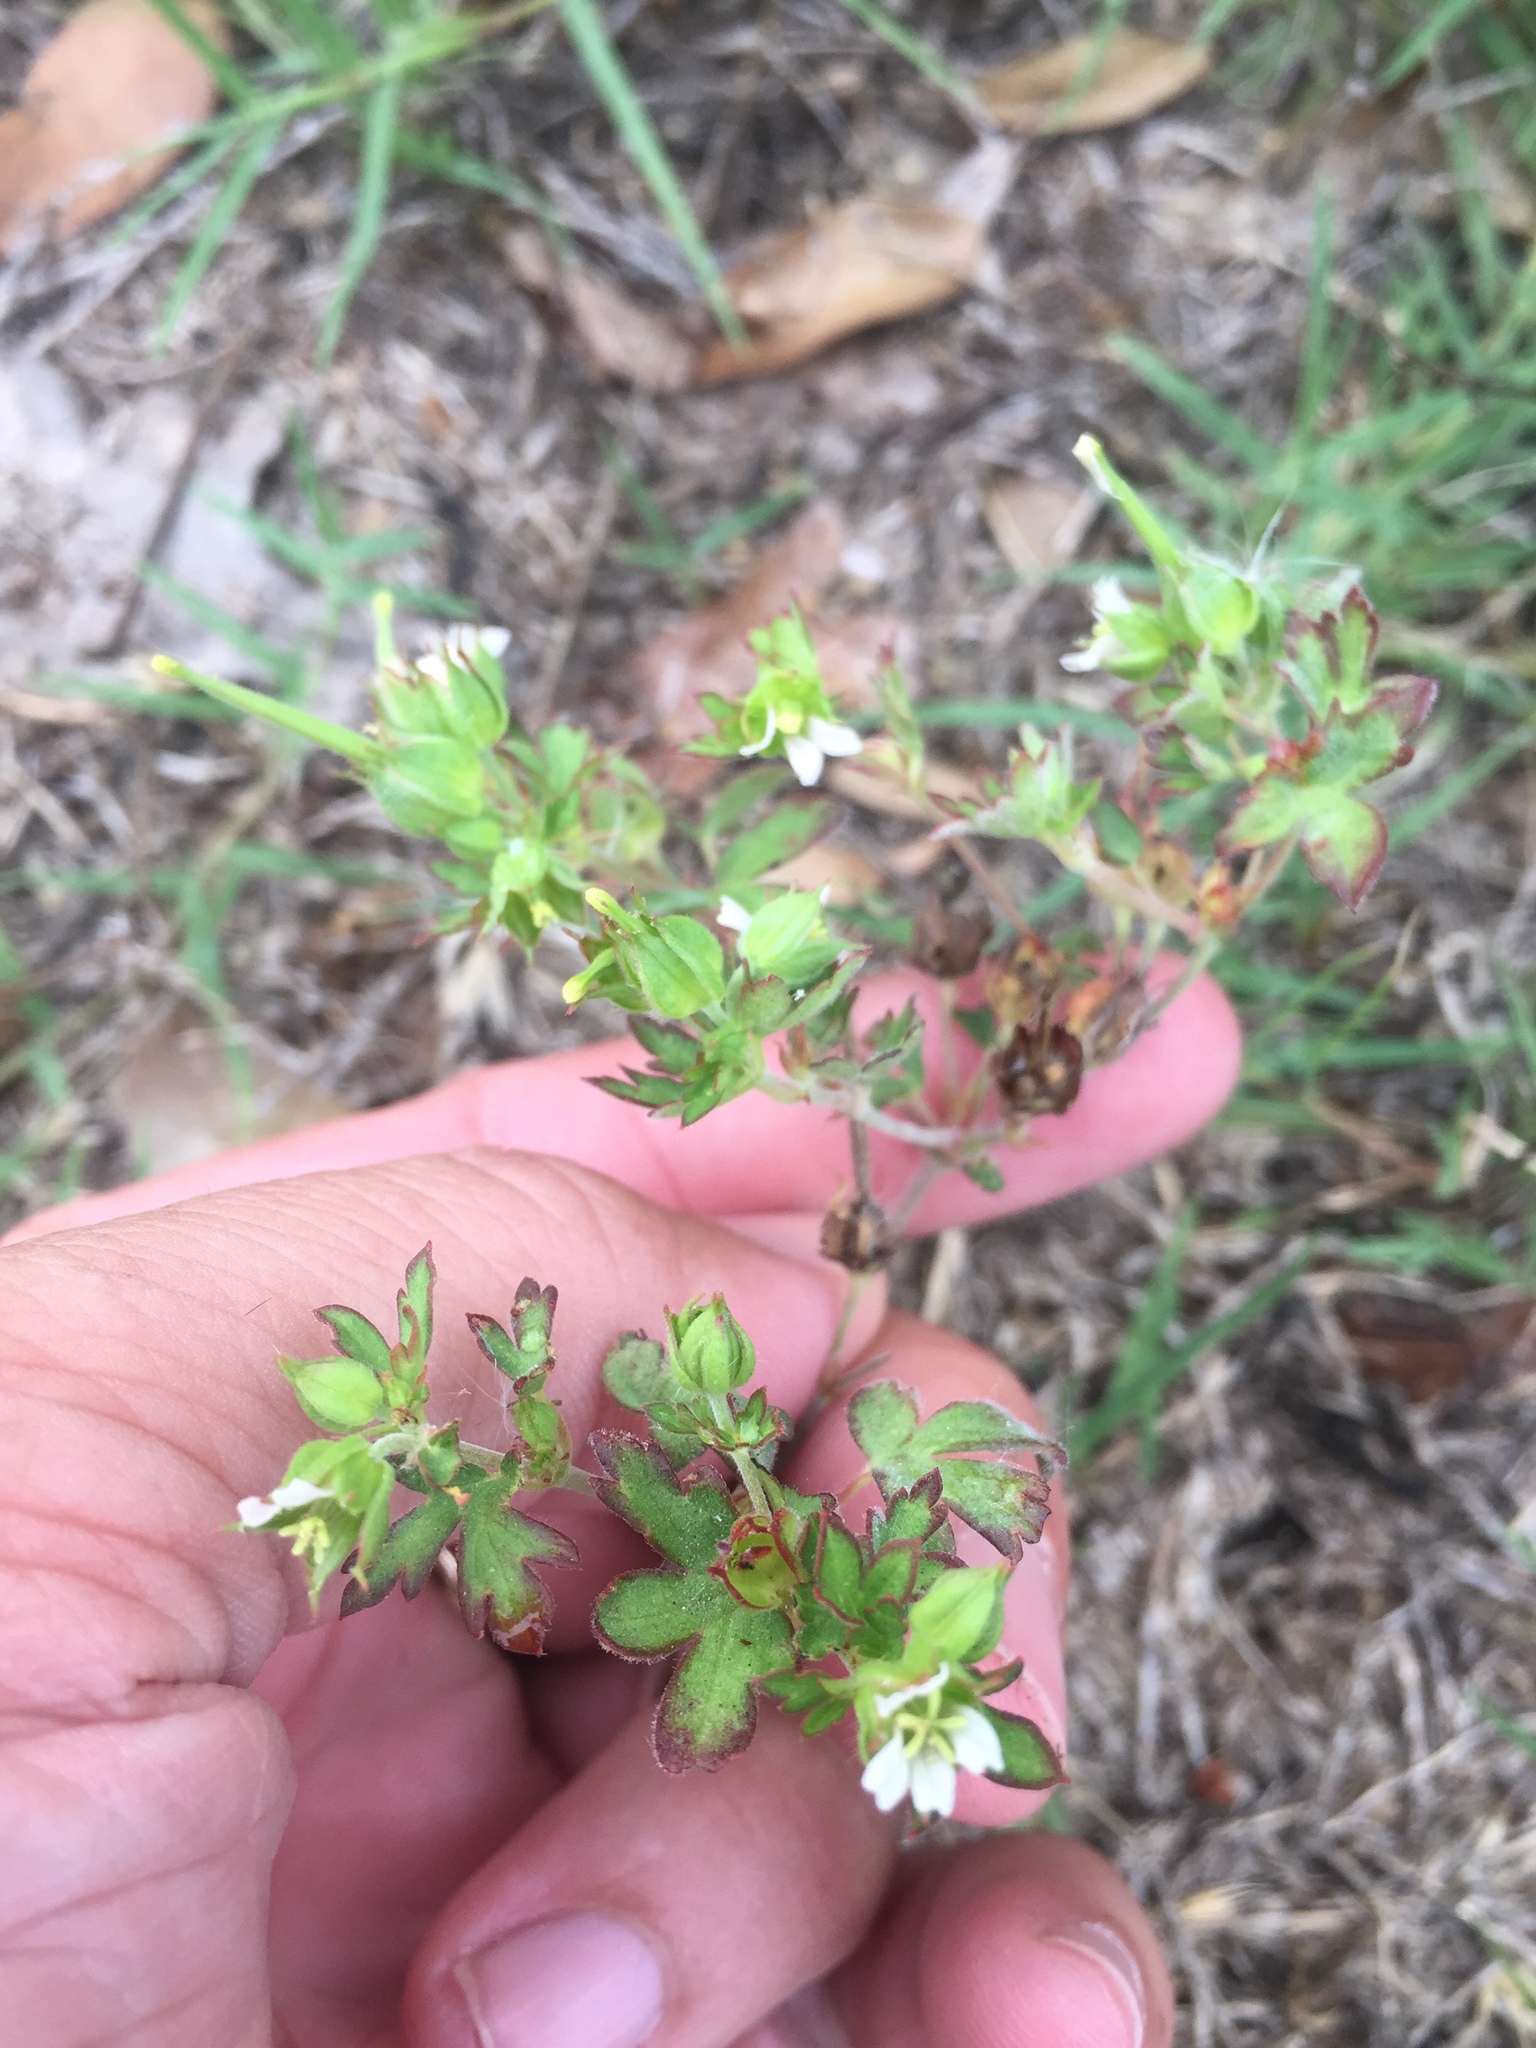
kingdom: Plantae
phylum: Tracheophyta
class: Magnoliopsida
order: Geraniales
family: Geraniaceae
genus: Geranium
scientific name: Geranium carolinianum
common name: Carolina crane's-bill
